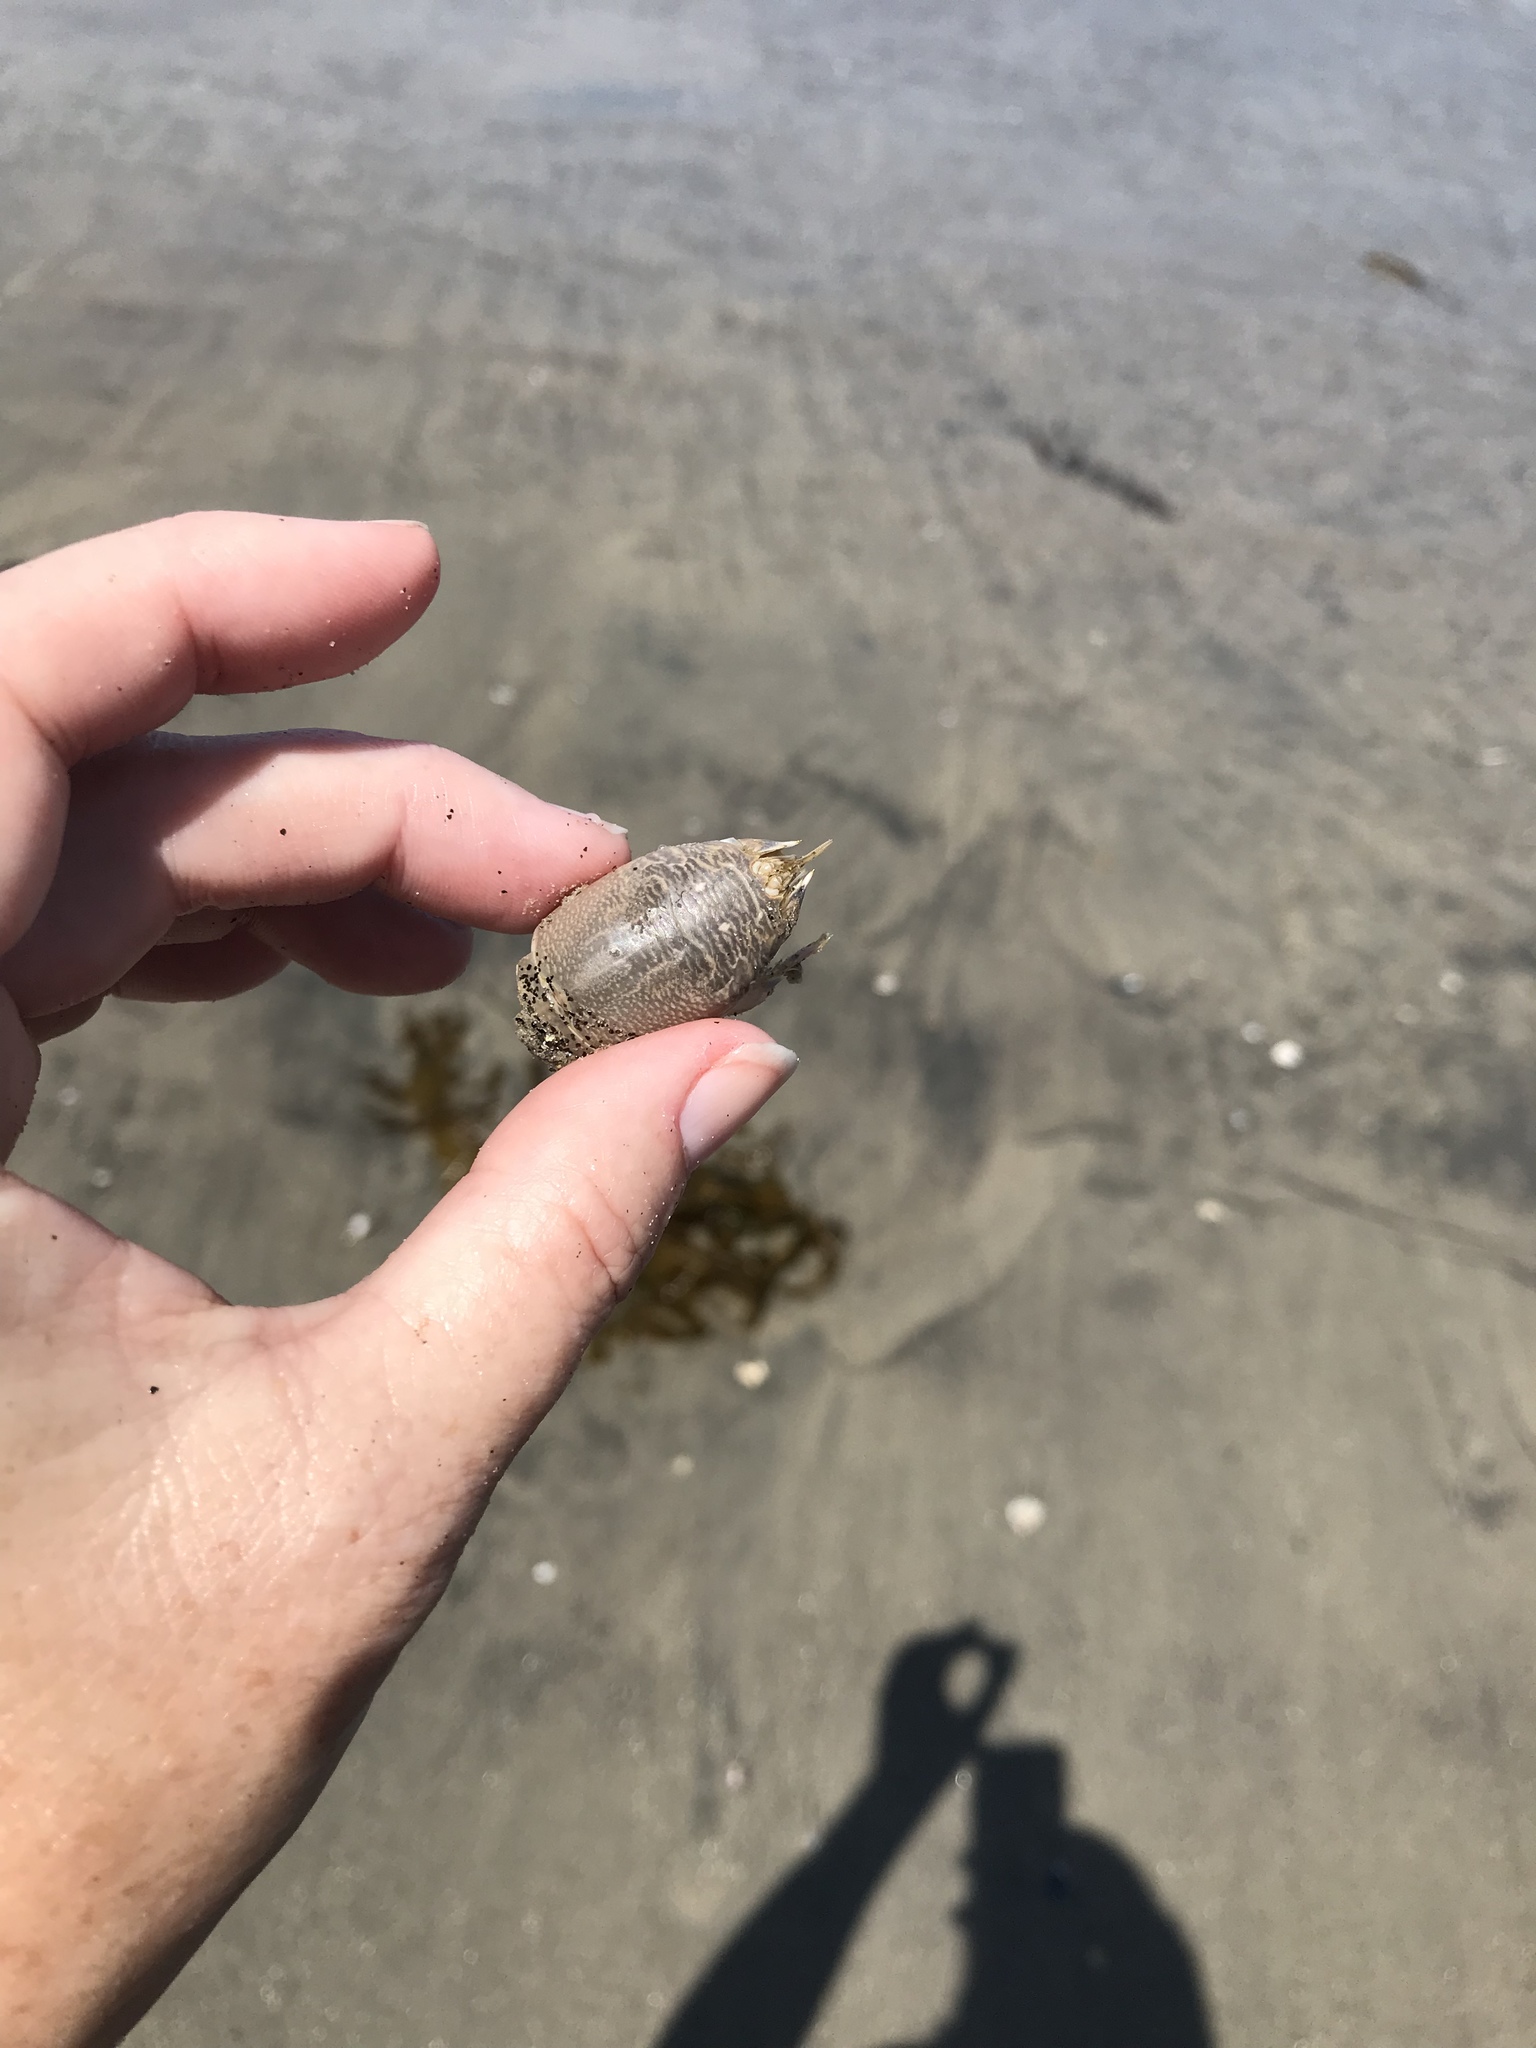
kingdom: Animalia
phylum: Arthropoda
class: Malacostraca
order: Decapoda
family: Hippidae
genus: Emerita
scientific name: Emerita analoga
